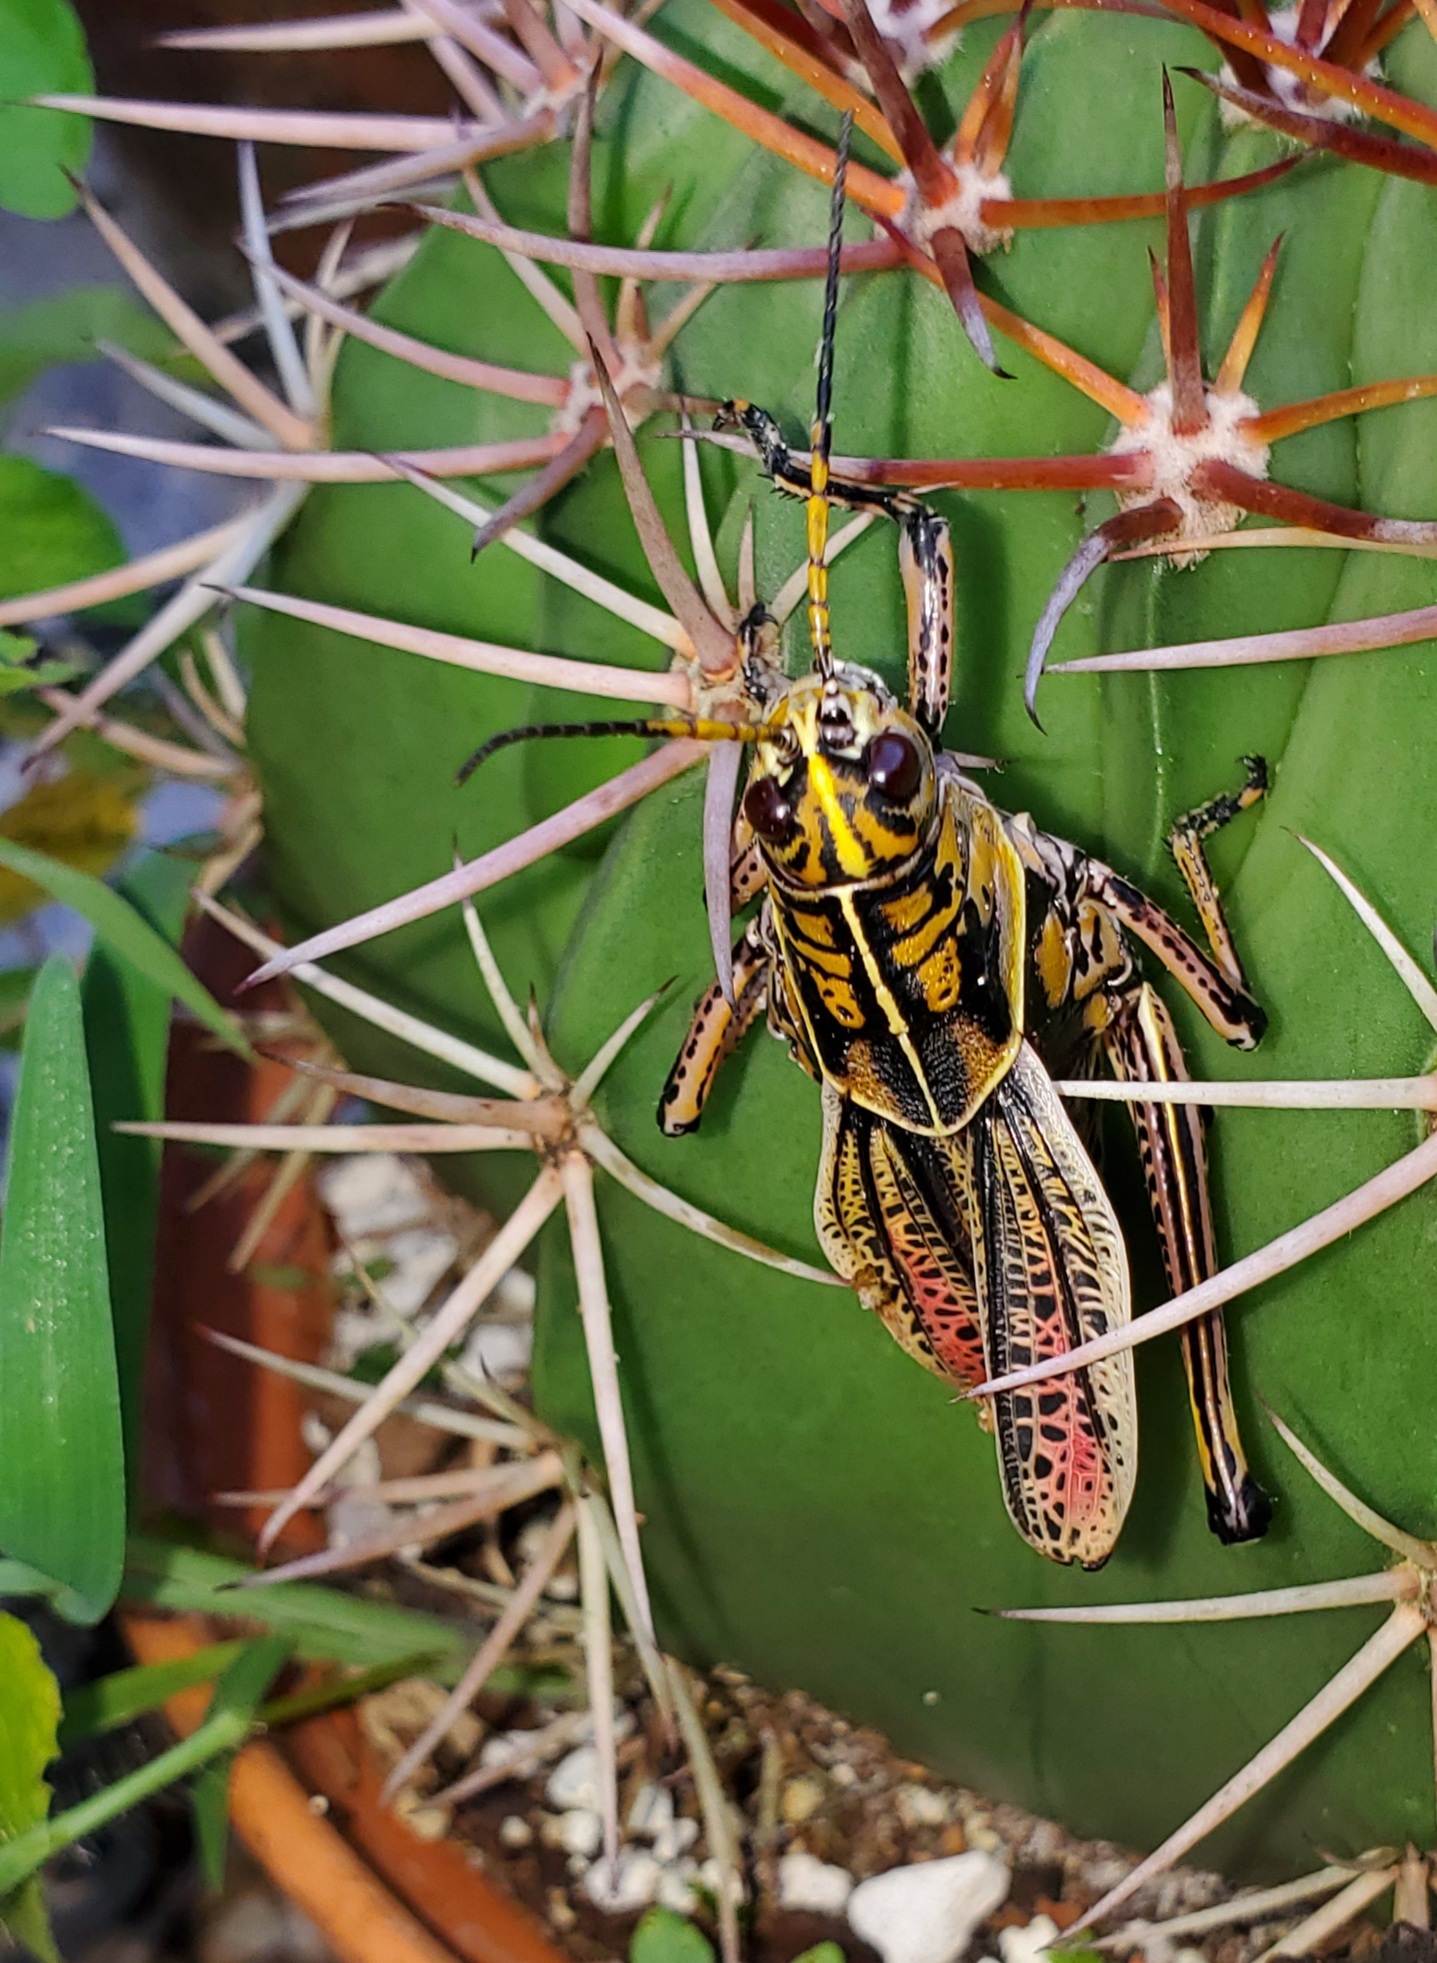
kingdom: Animalia
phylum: Arthropoda
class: Insecta
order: Orthoptera
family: Romaleidae
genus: Romalea
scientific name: Romalea microptera
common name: Eastern lubber grasshopper
